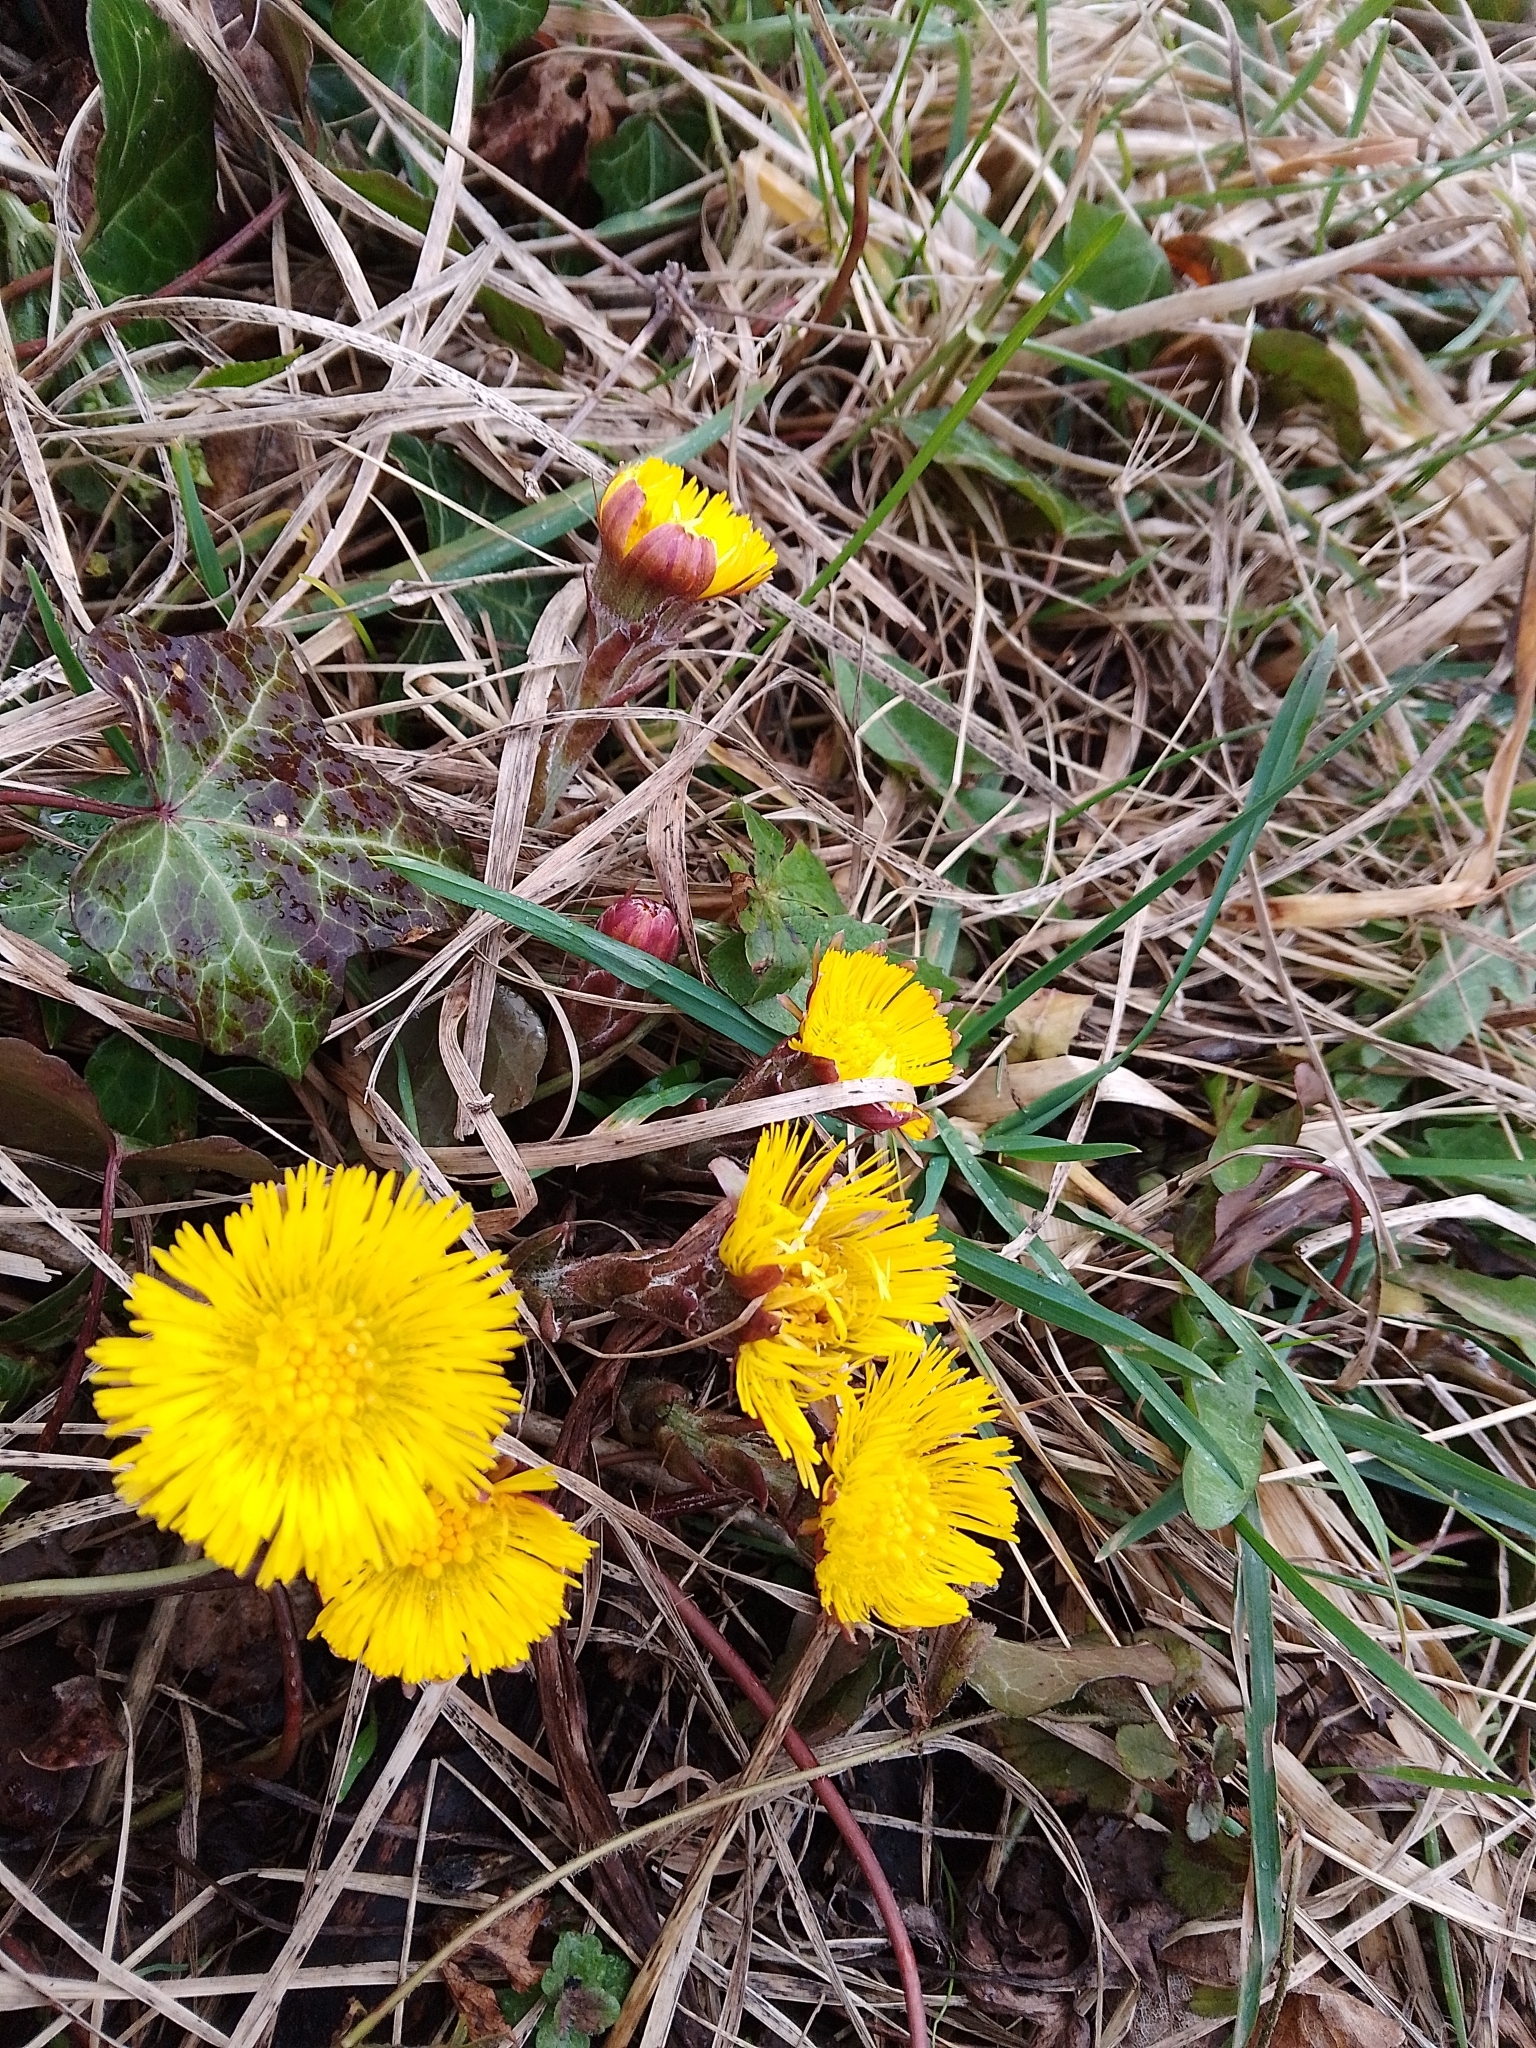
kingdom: Plantae
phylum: Tracheophyta
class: Magnoliopsida
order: Asterales
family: Asteraceae
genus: Tussilago
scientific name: Tussilago farfara
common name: Coltsfoot
